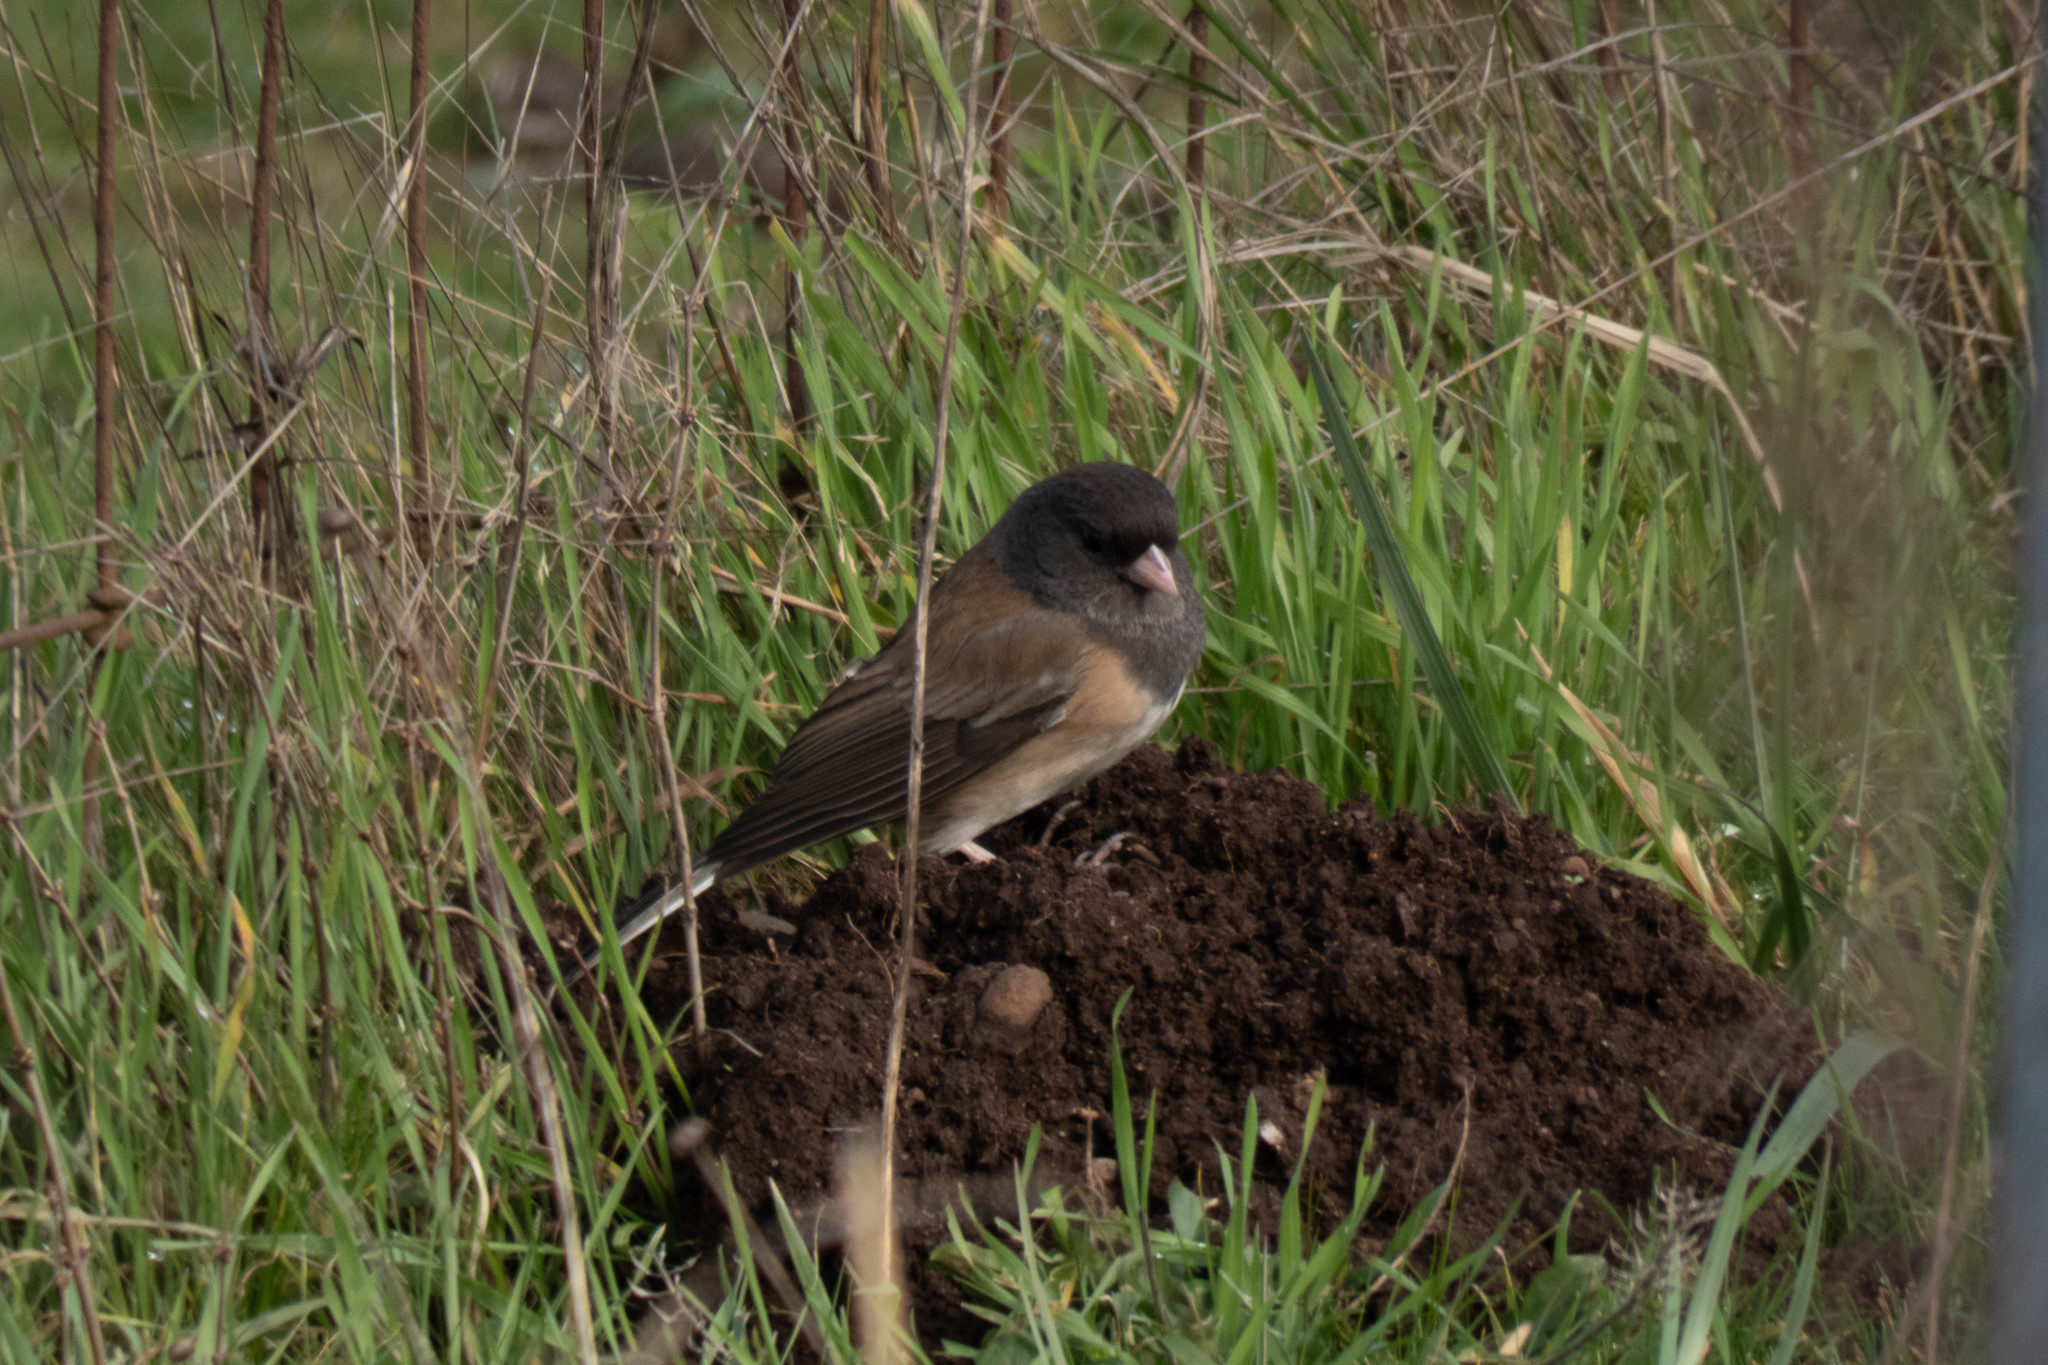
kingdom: Animalia
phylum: Chordata
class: Aves
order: Passeriformes
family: Passerellidae
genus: Junco
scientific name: Junco hyemalis
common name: Dark-eyed junco
